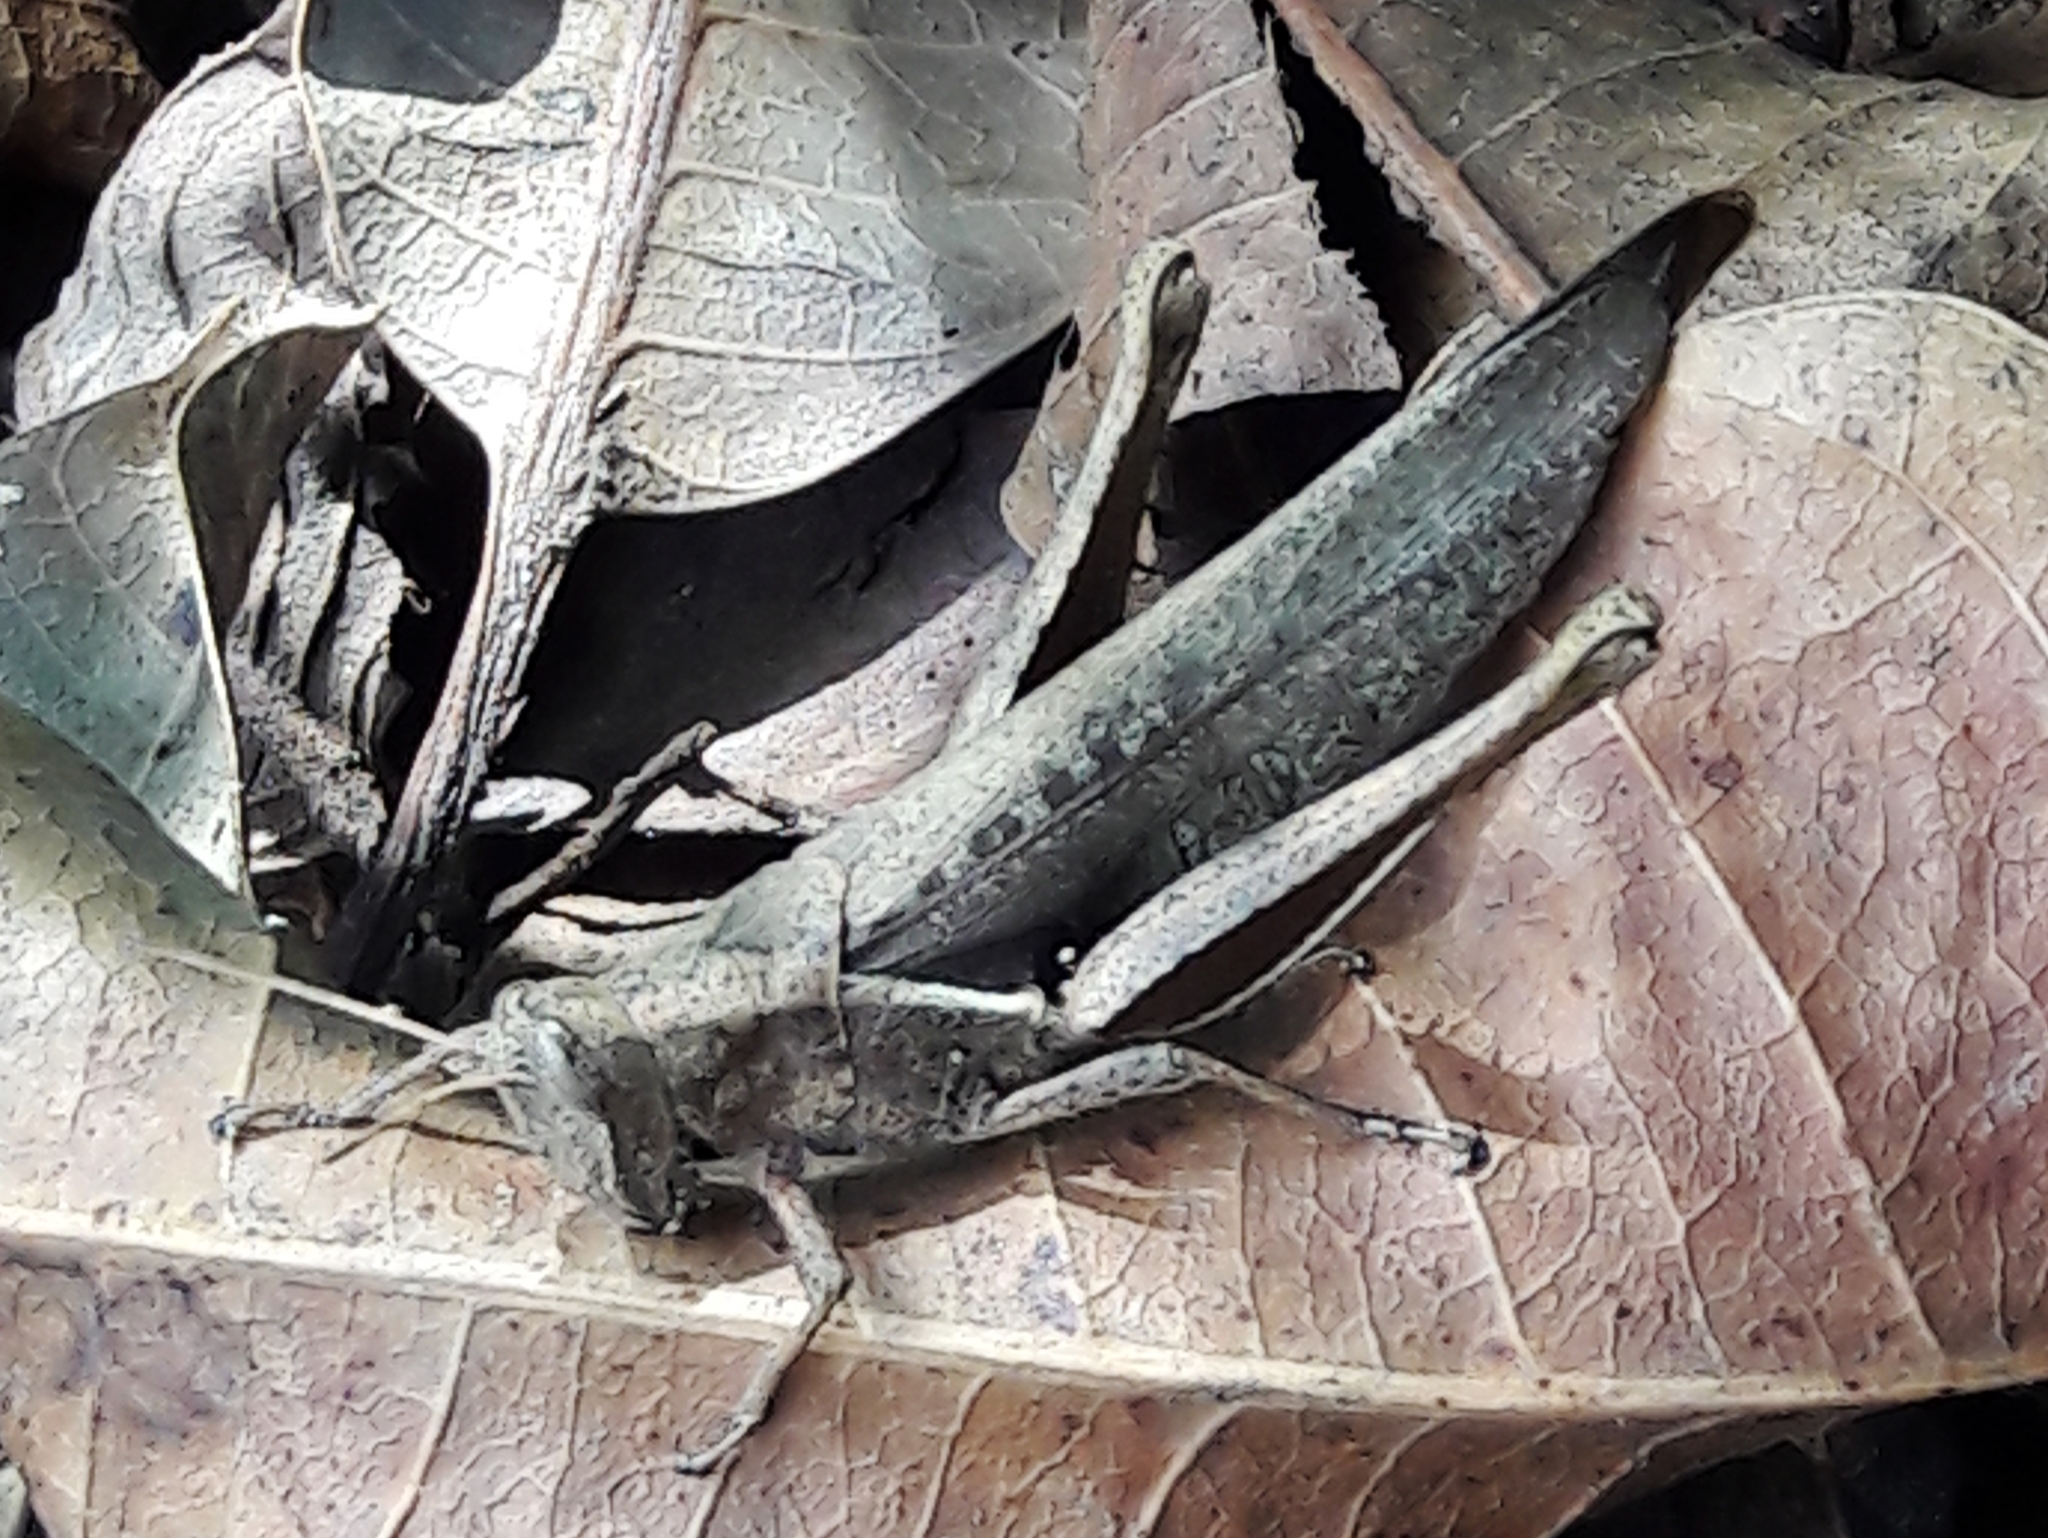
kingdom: Animalia
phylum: Arthropoda
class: Insecta
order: Orthoptera
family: Acrididae
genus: Abracris
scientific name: Abracris flavolineata
